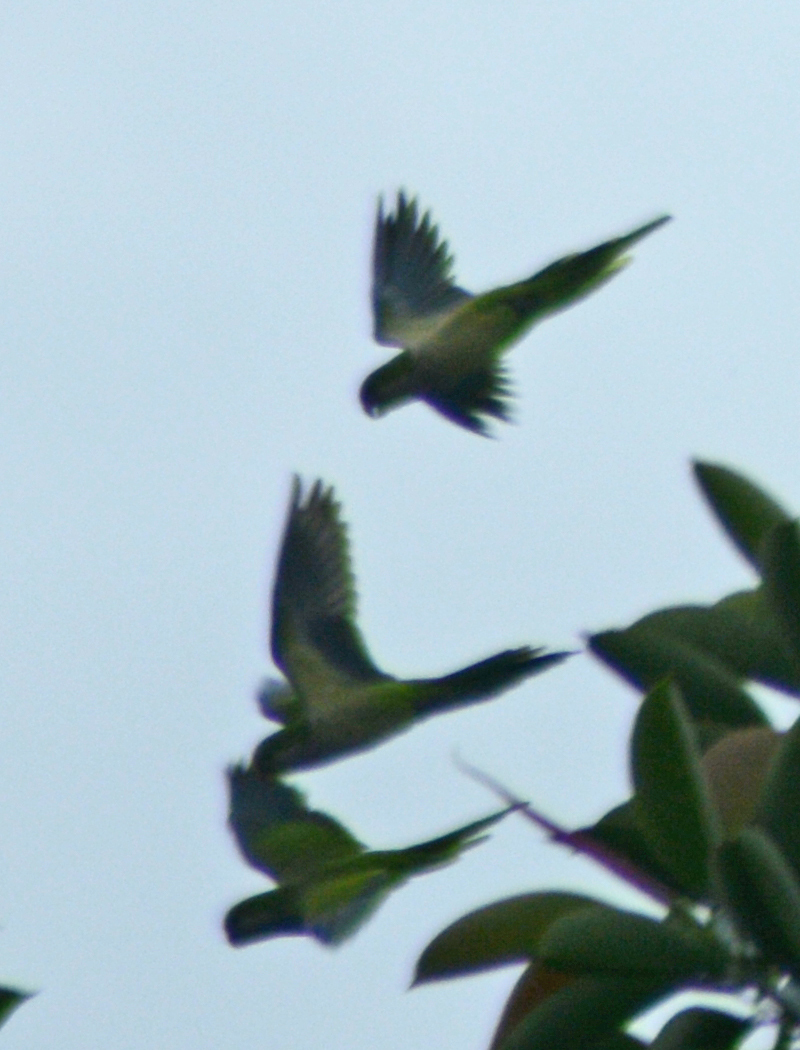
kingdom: Animalia
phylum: Chordata
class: Aves
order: Psittaciformes
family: Psittacidae
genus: Myiopsitta
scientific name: Myiopsitta monachus
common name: Monk parakeet
